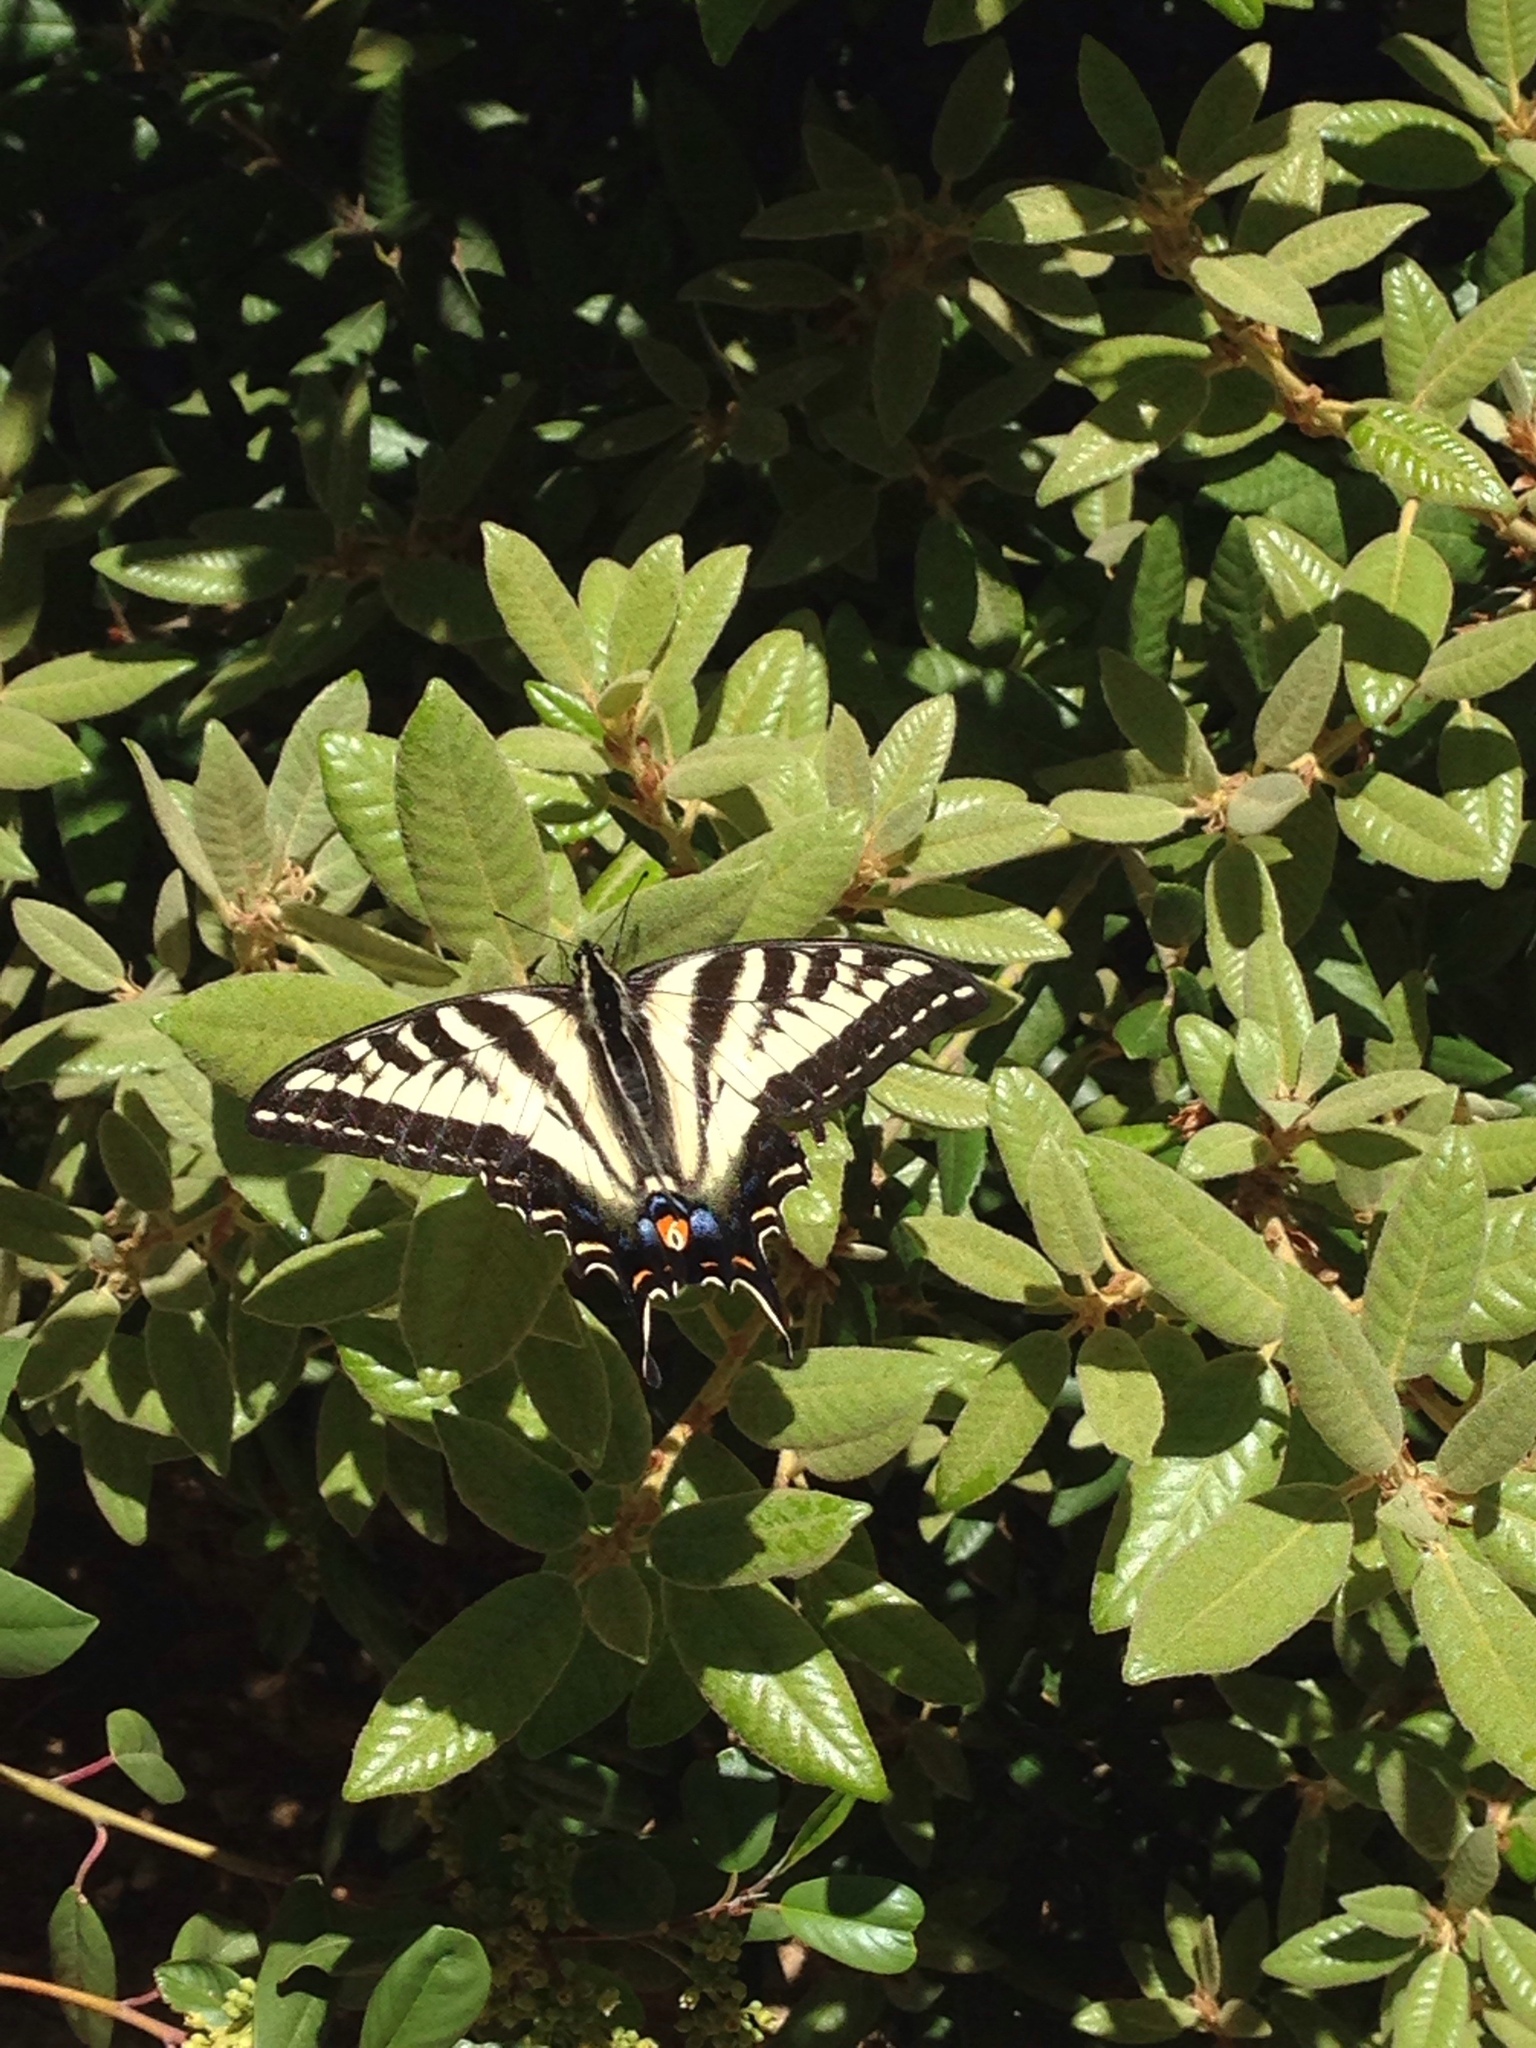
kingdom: Animalia
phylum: Arthropoda
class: Insecta
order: Lepidoptera
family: Papilionidae
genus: Papilio
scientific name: Papilio eurymedon
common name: Pale tiger swallowtail
